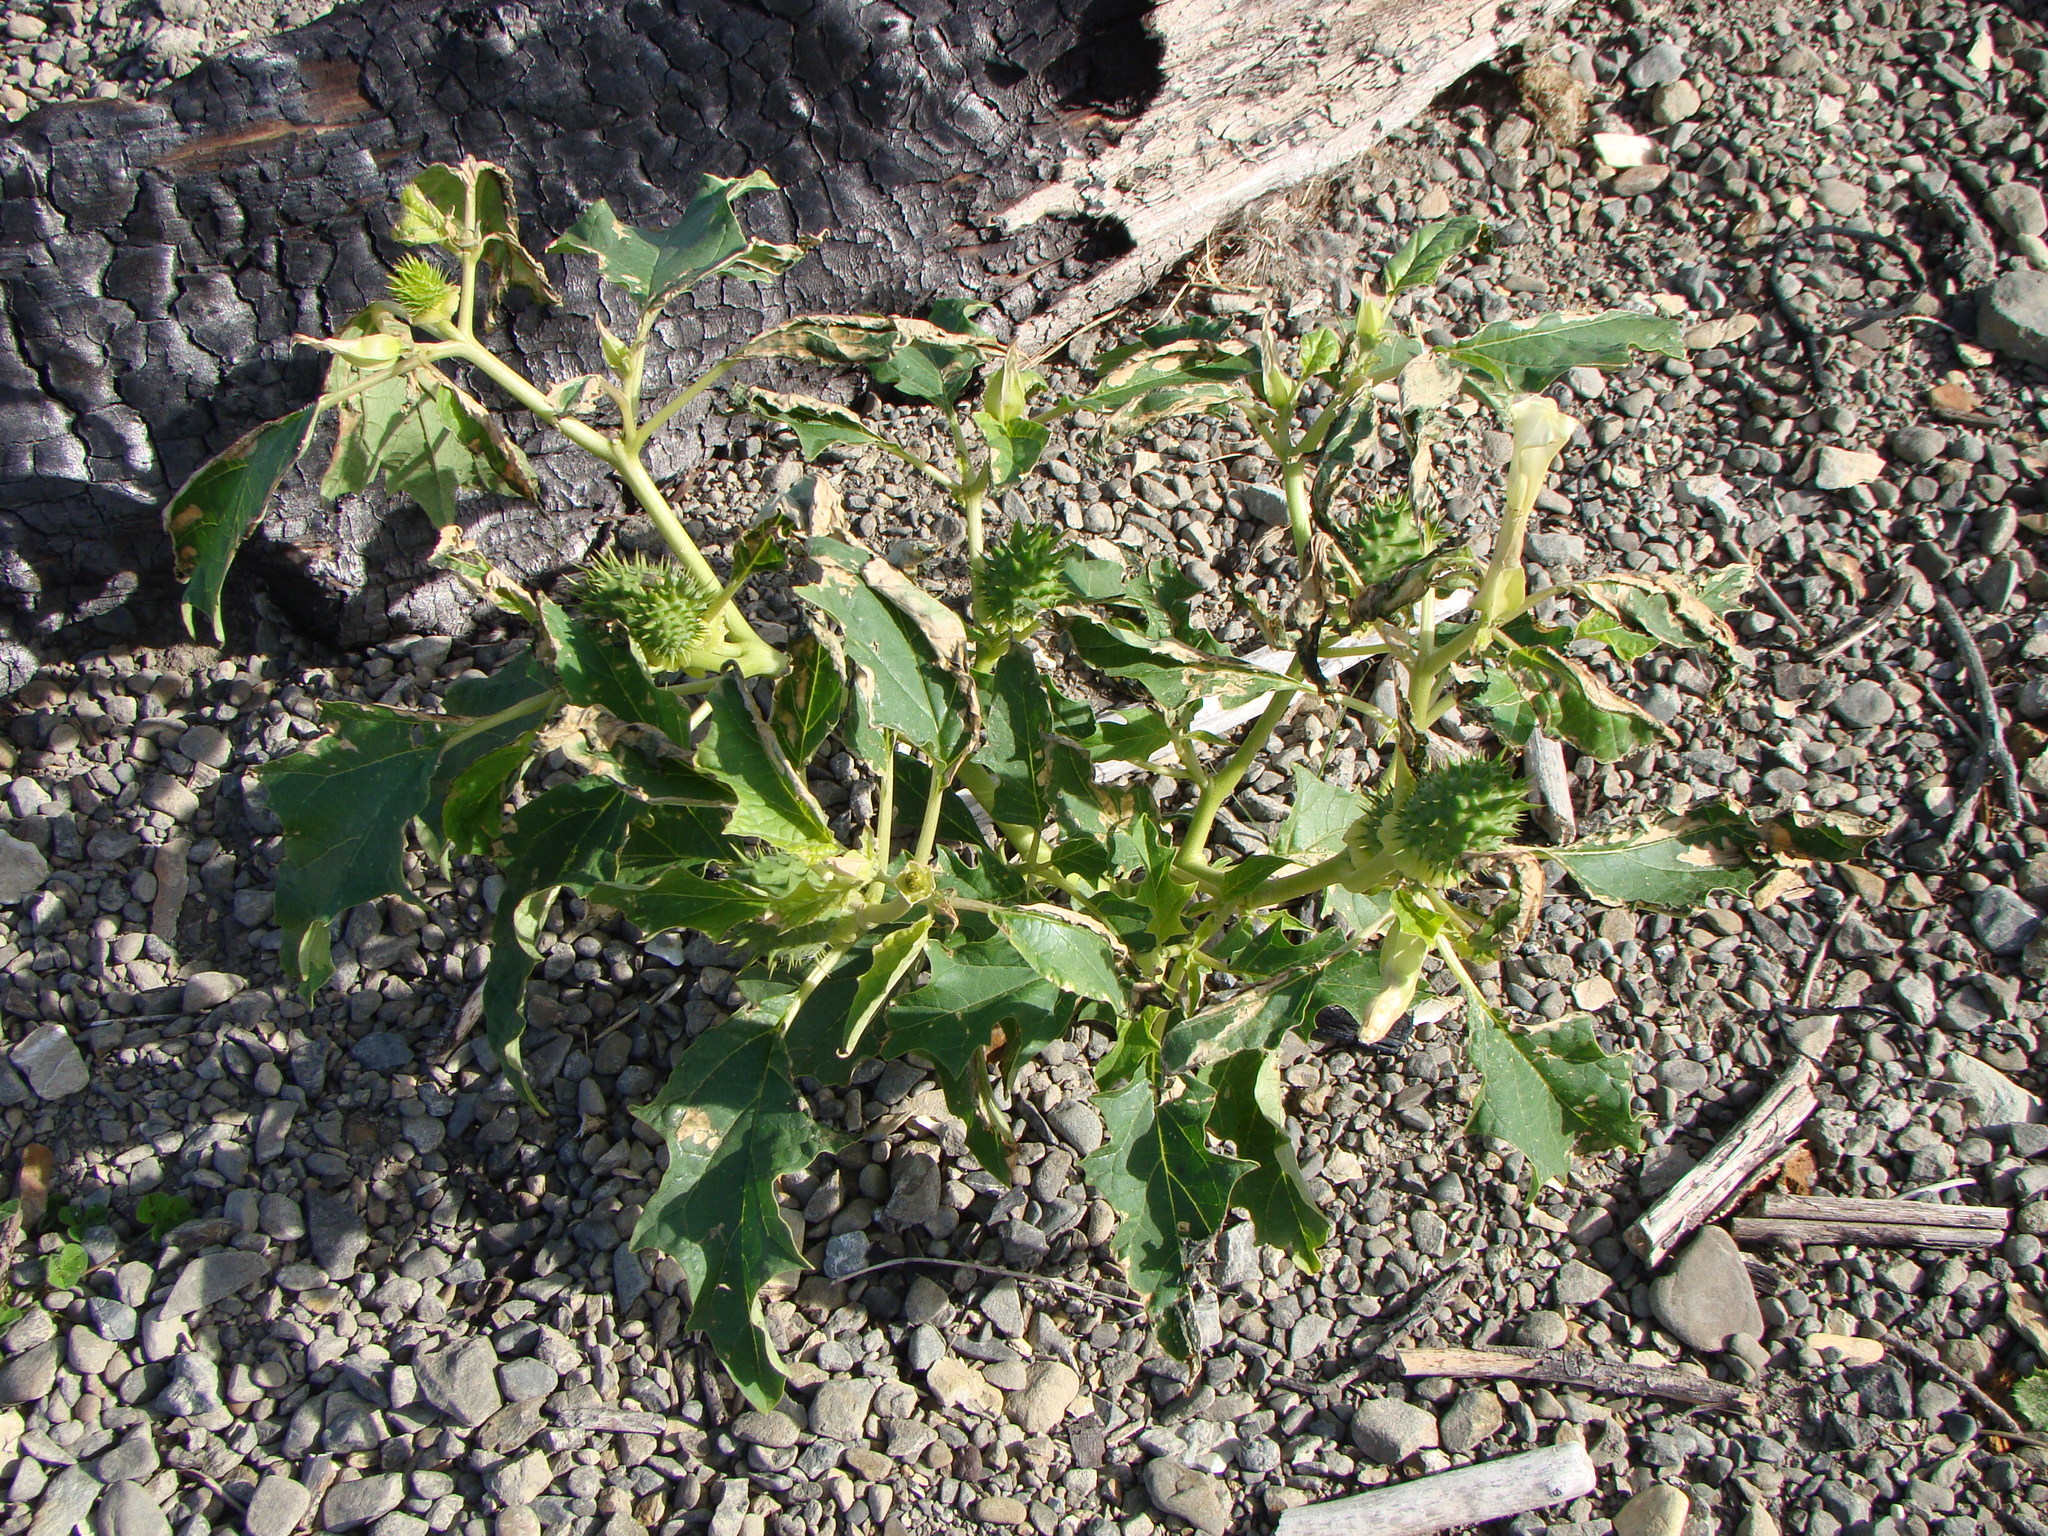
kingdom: Plantae
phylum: Tracheophyta
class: Magnoliopsida
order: Solanales
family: Solanaceae
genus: Datura
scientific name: Datura stramonium
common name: Thorn-apple
